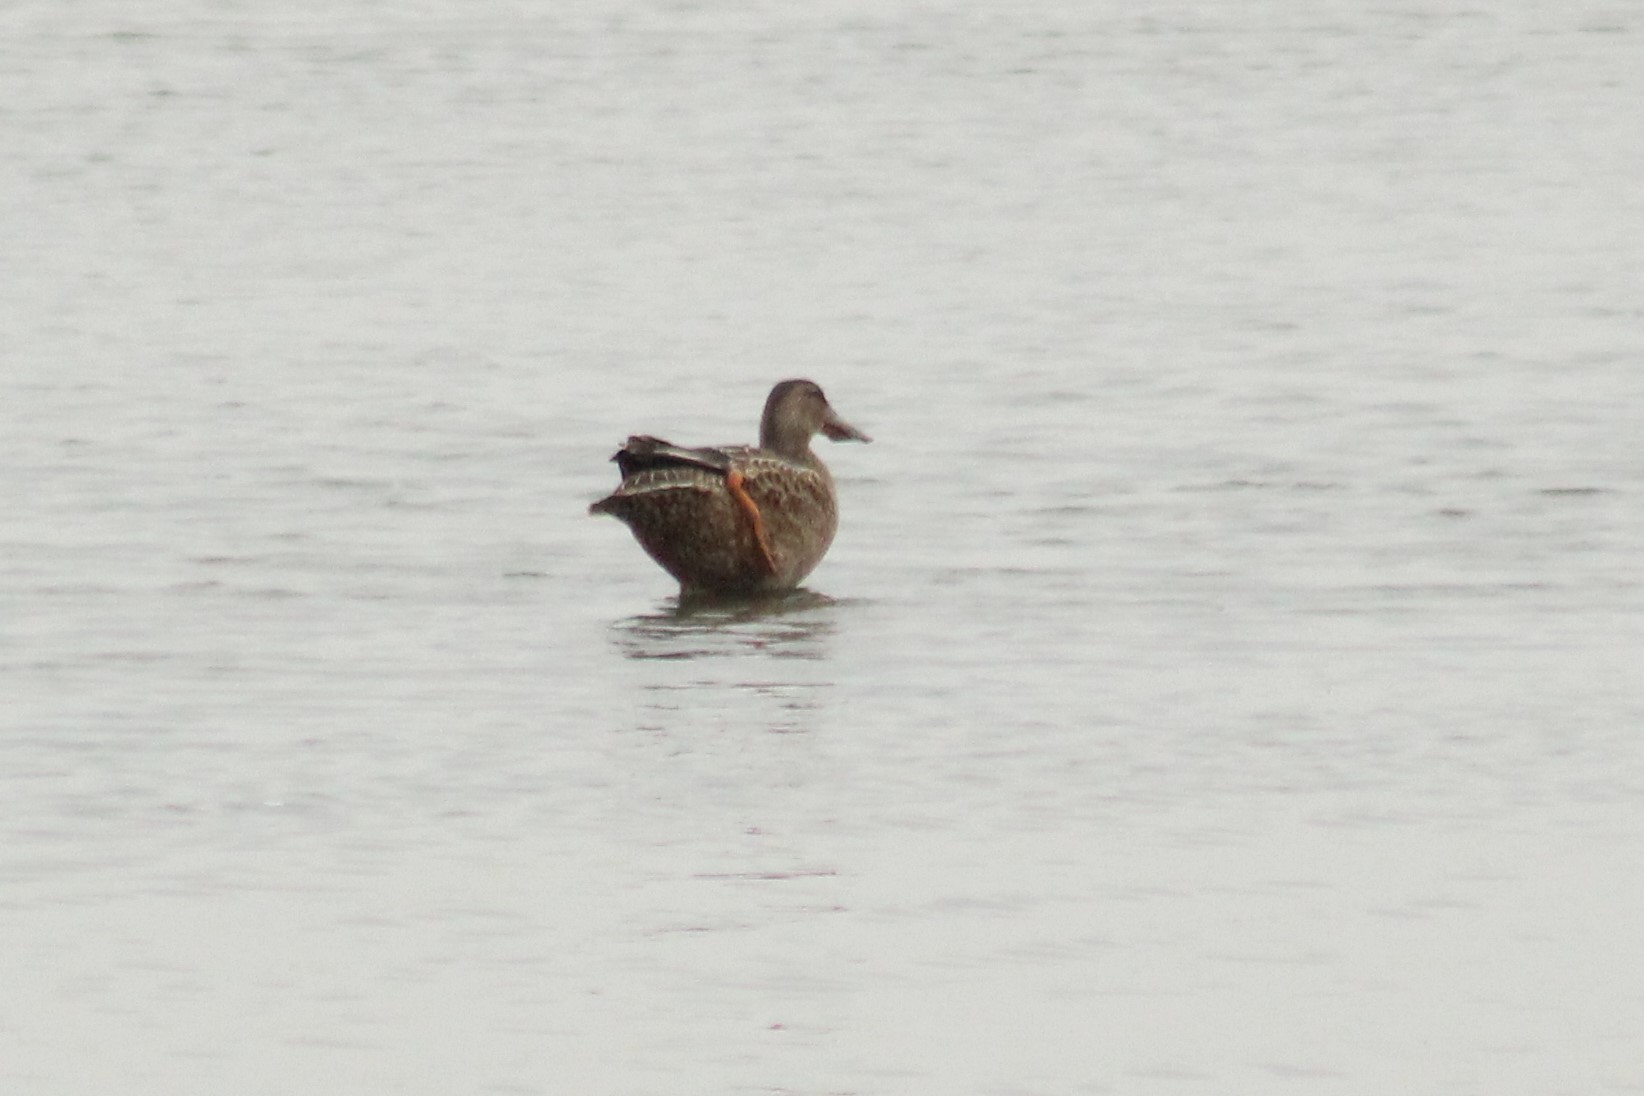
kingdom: Animalia
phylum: Chordata
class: Aves
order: Anseriformes
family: Anatidae
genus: Spatula
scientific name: Spatula clypeata
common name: Northern shoveler
